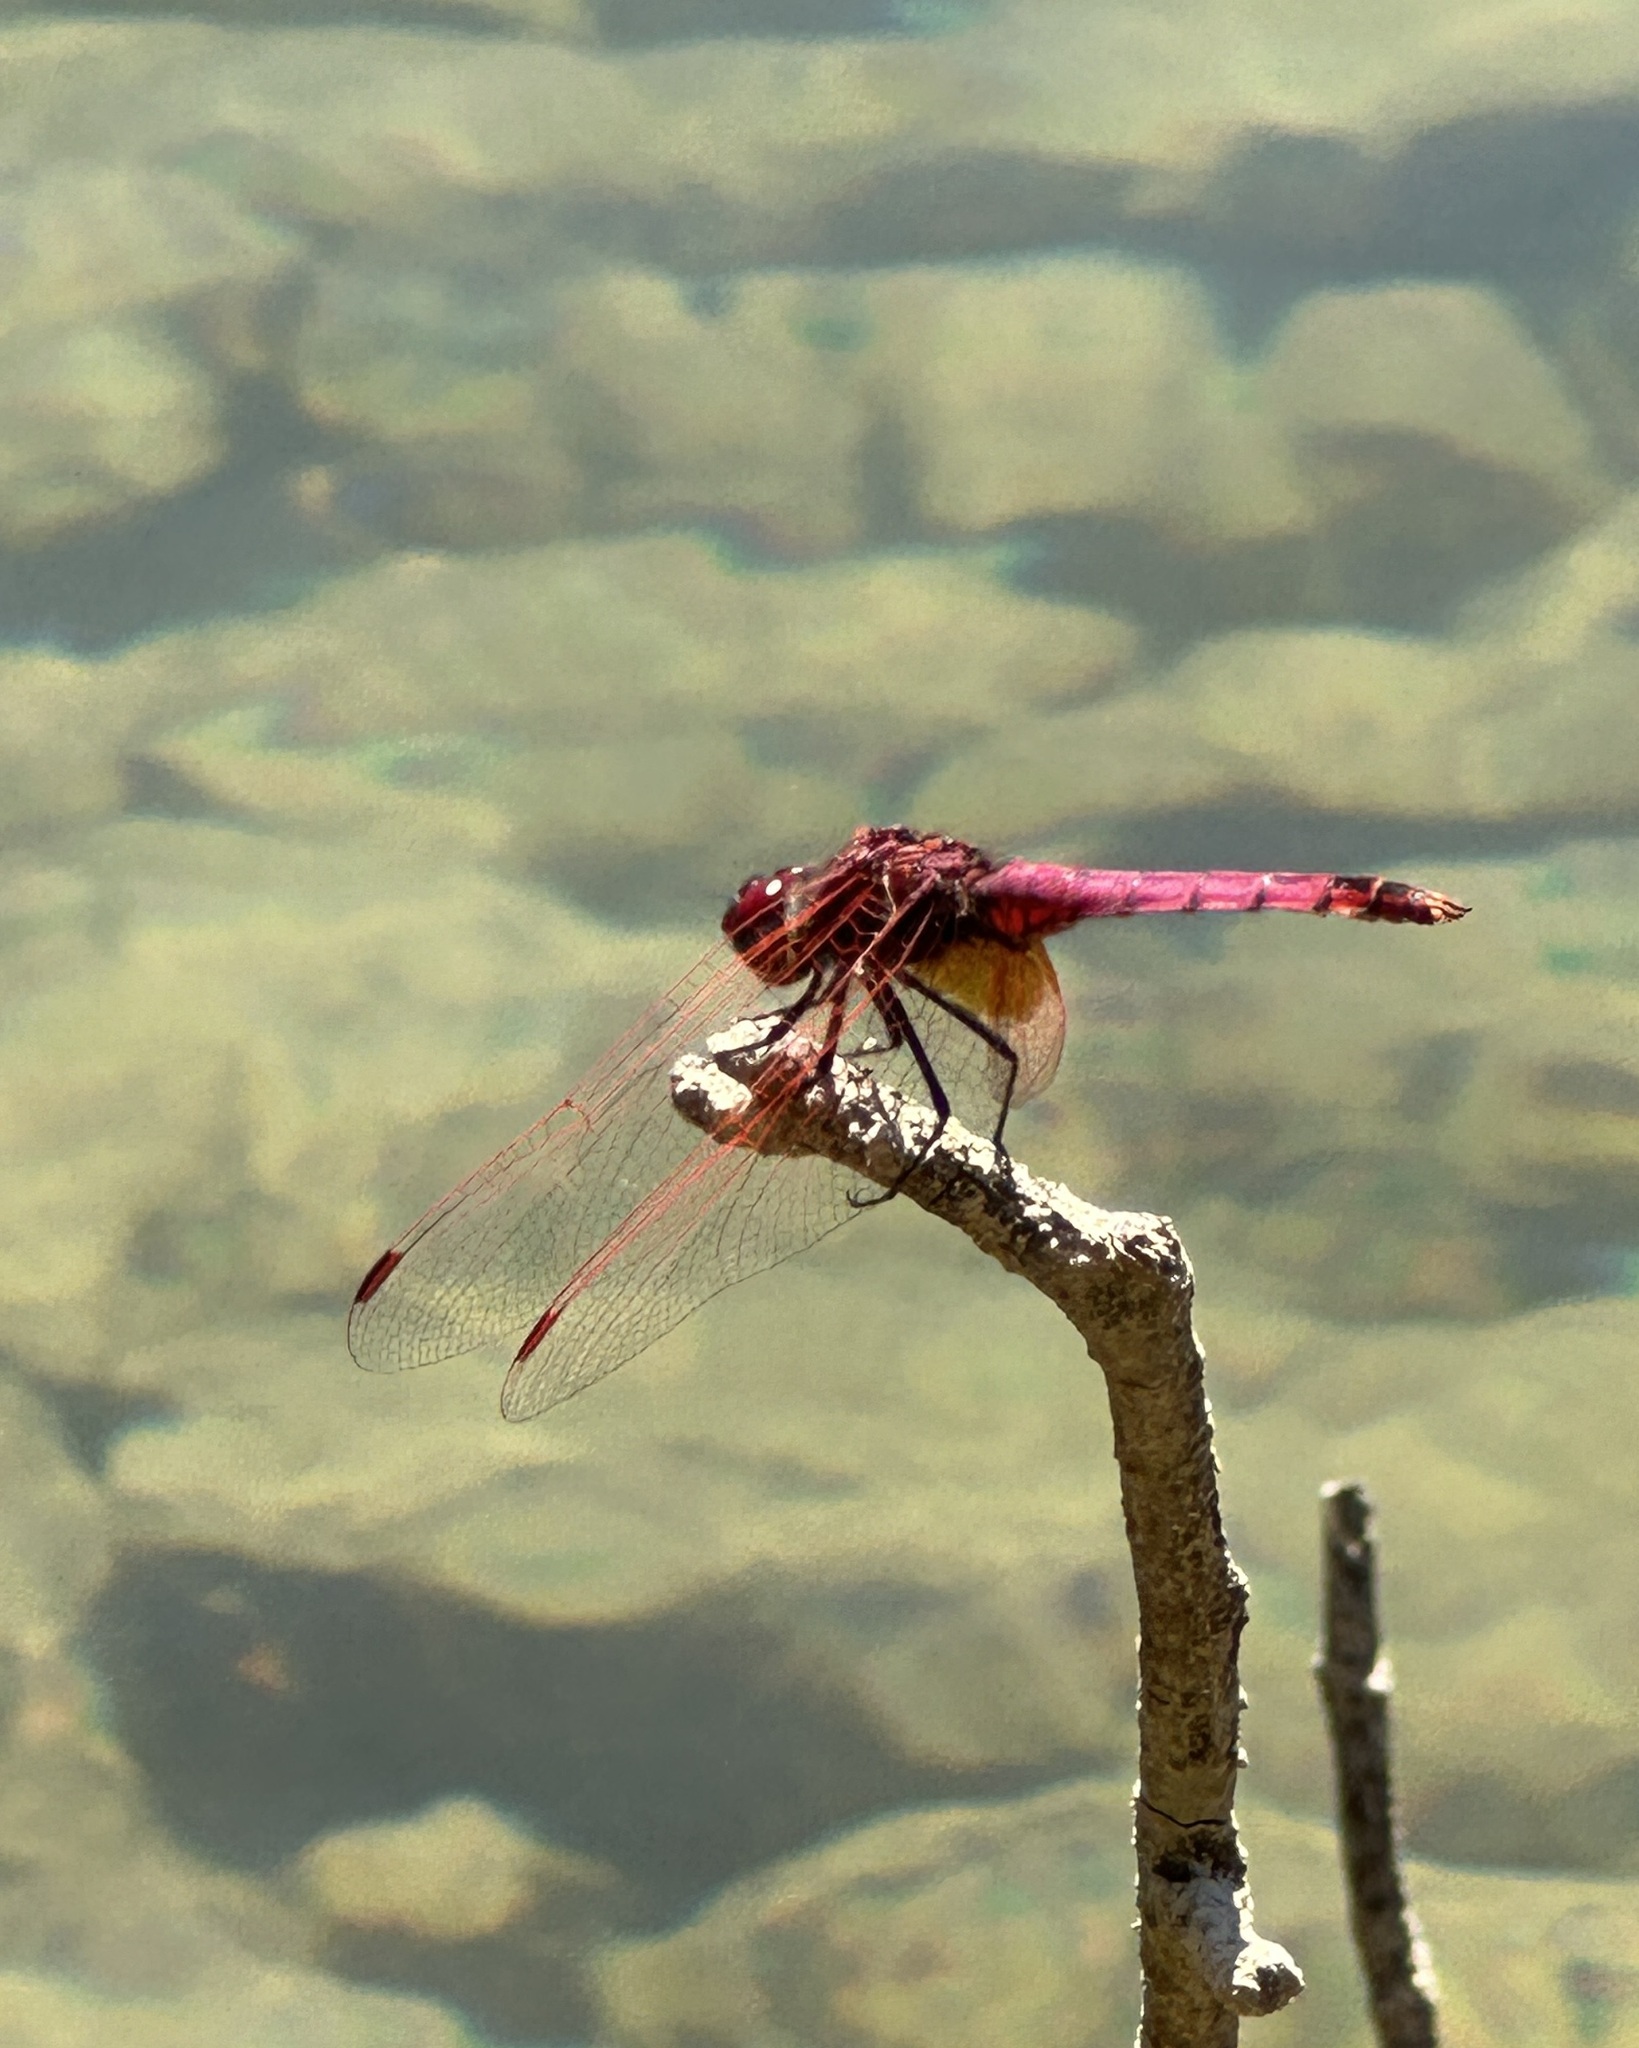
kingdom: Animalia
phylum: Arthropoda
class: Insecta
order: Odonata
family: Libellulidae
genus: Trithemis
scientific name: Trithemis annulata
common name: Violet dropwing
